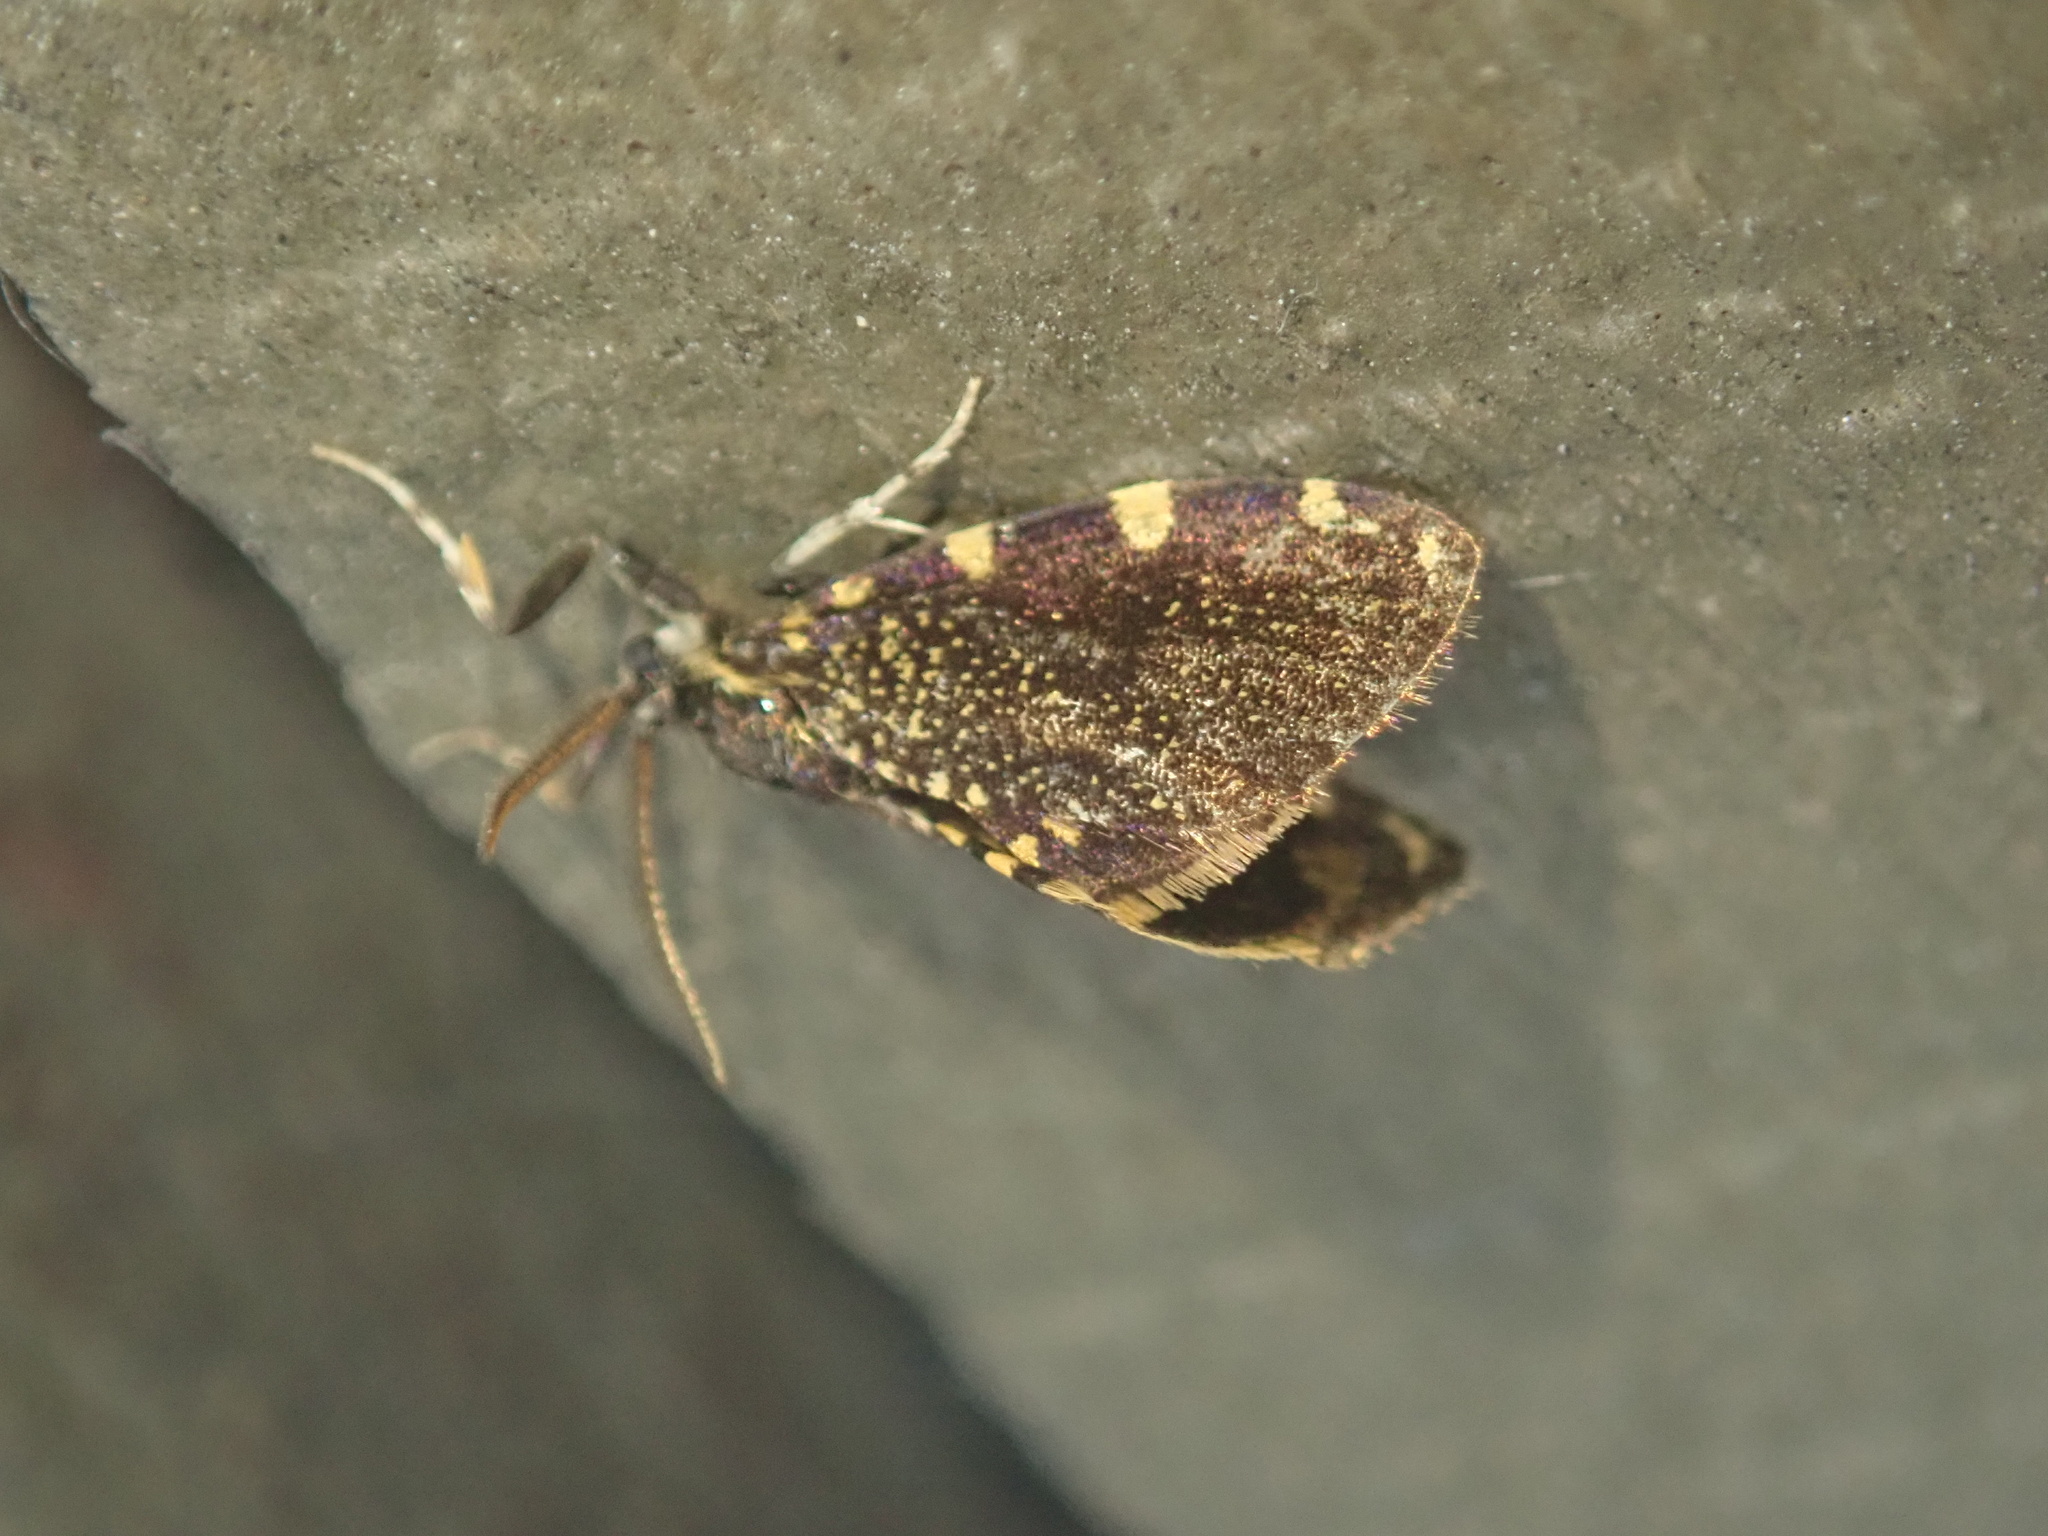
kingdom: Animalia
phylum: Arthropoda
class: Insecta
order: Lepidoptera
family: Psychidae
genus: Cebysa
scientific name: Cebysa leucotelus
